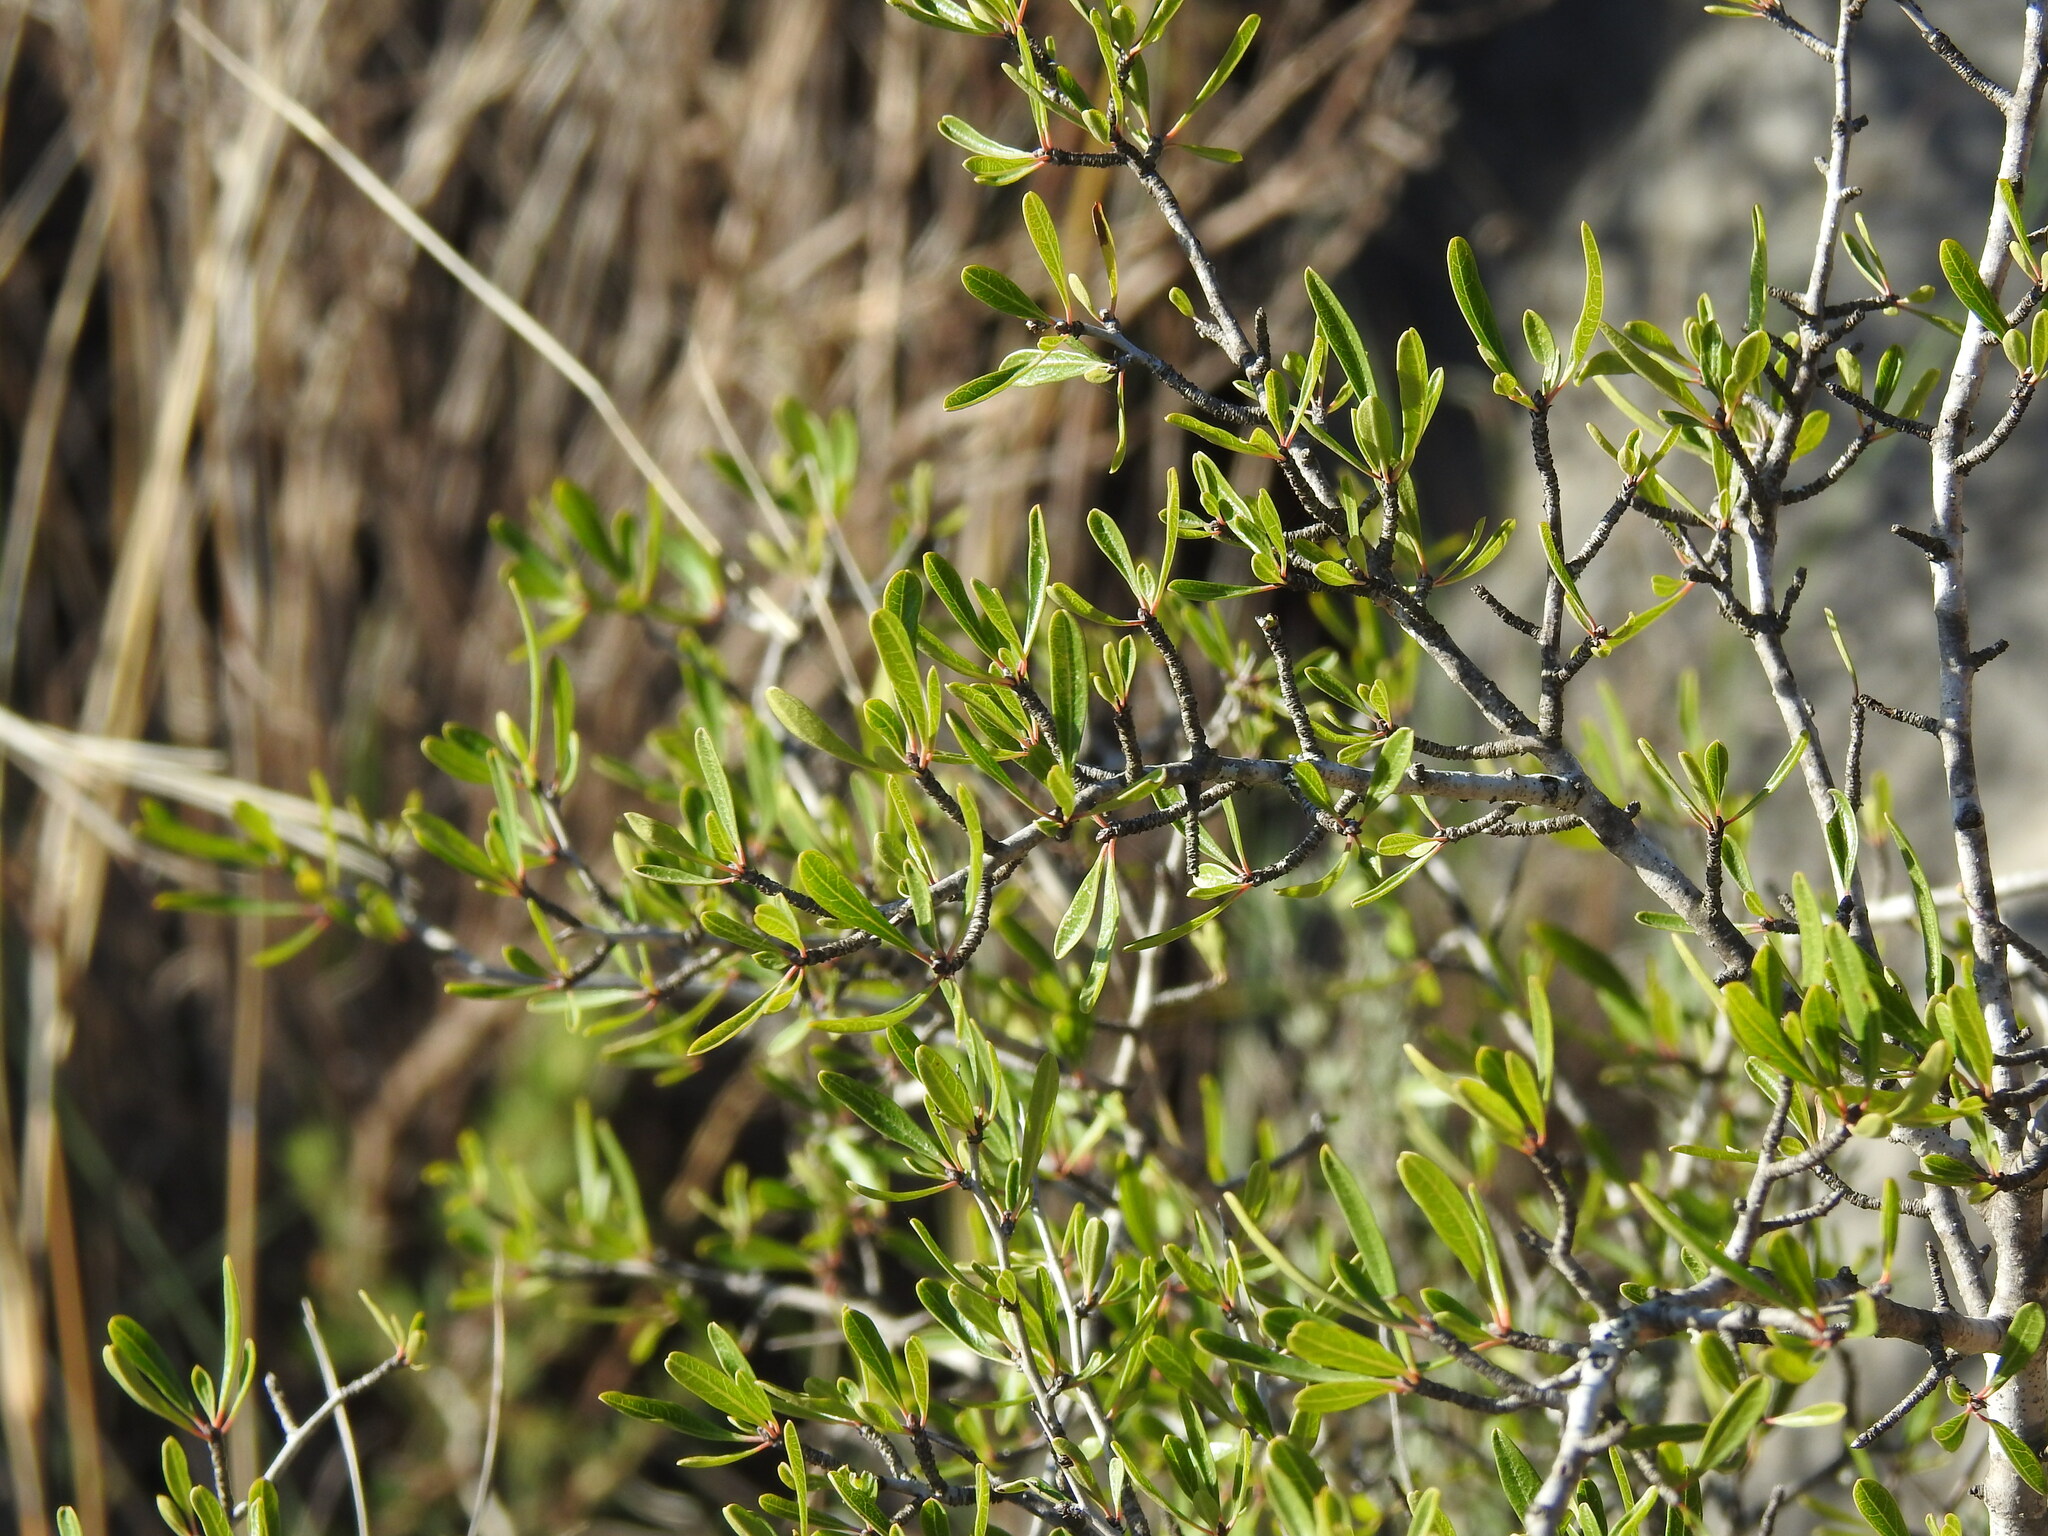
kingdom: Plantae
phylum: Tracheophyta
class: Magnoliopsida
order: Rosales
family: Rhamnaceae
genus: Rhamnus
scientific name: Rhamnus oleoides
